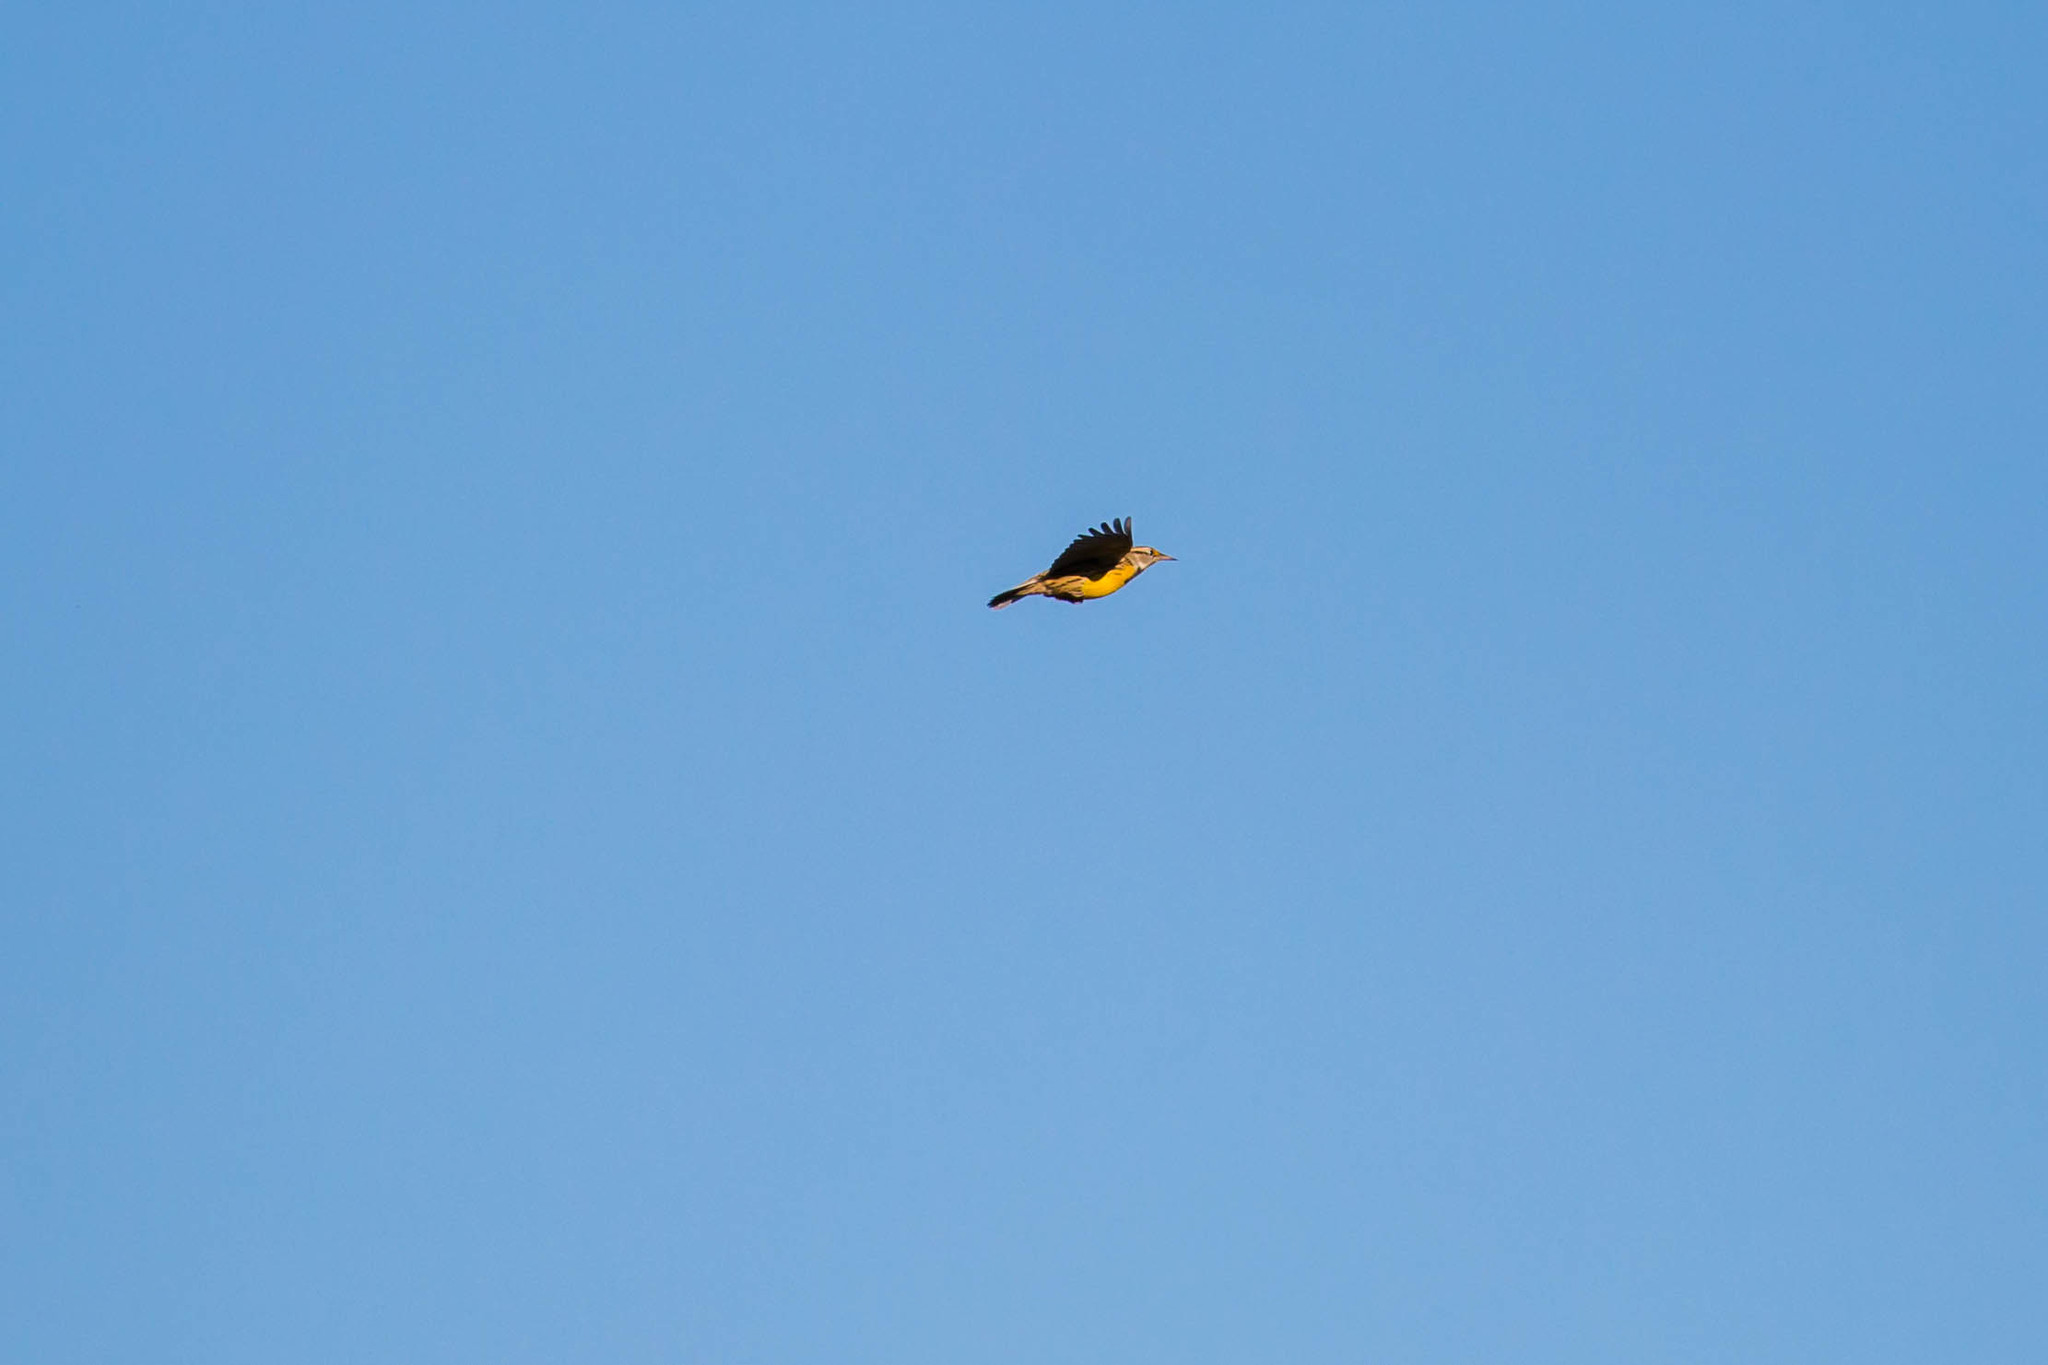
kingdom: Animalia
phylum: Chordata
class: Aves
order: Passeriformes
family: Icteridae
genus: Sturnella
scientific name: Sturnella magna
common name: Eastern meadowlark
